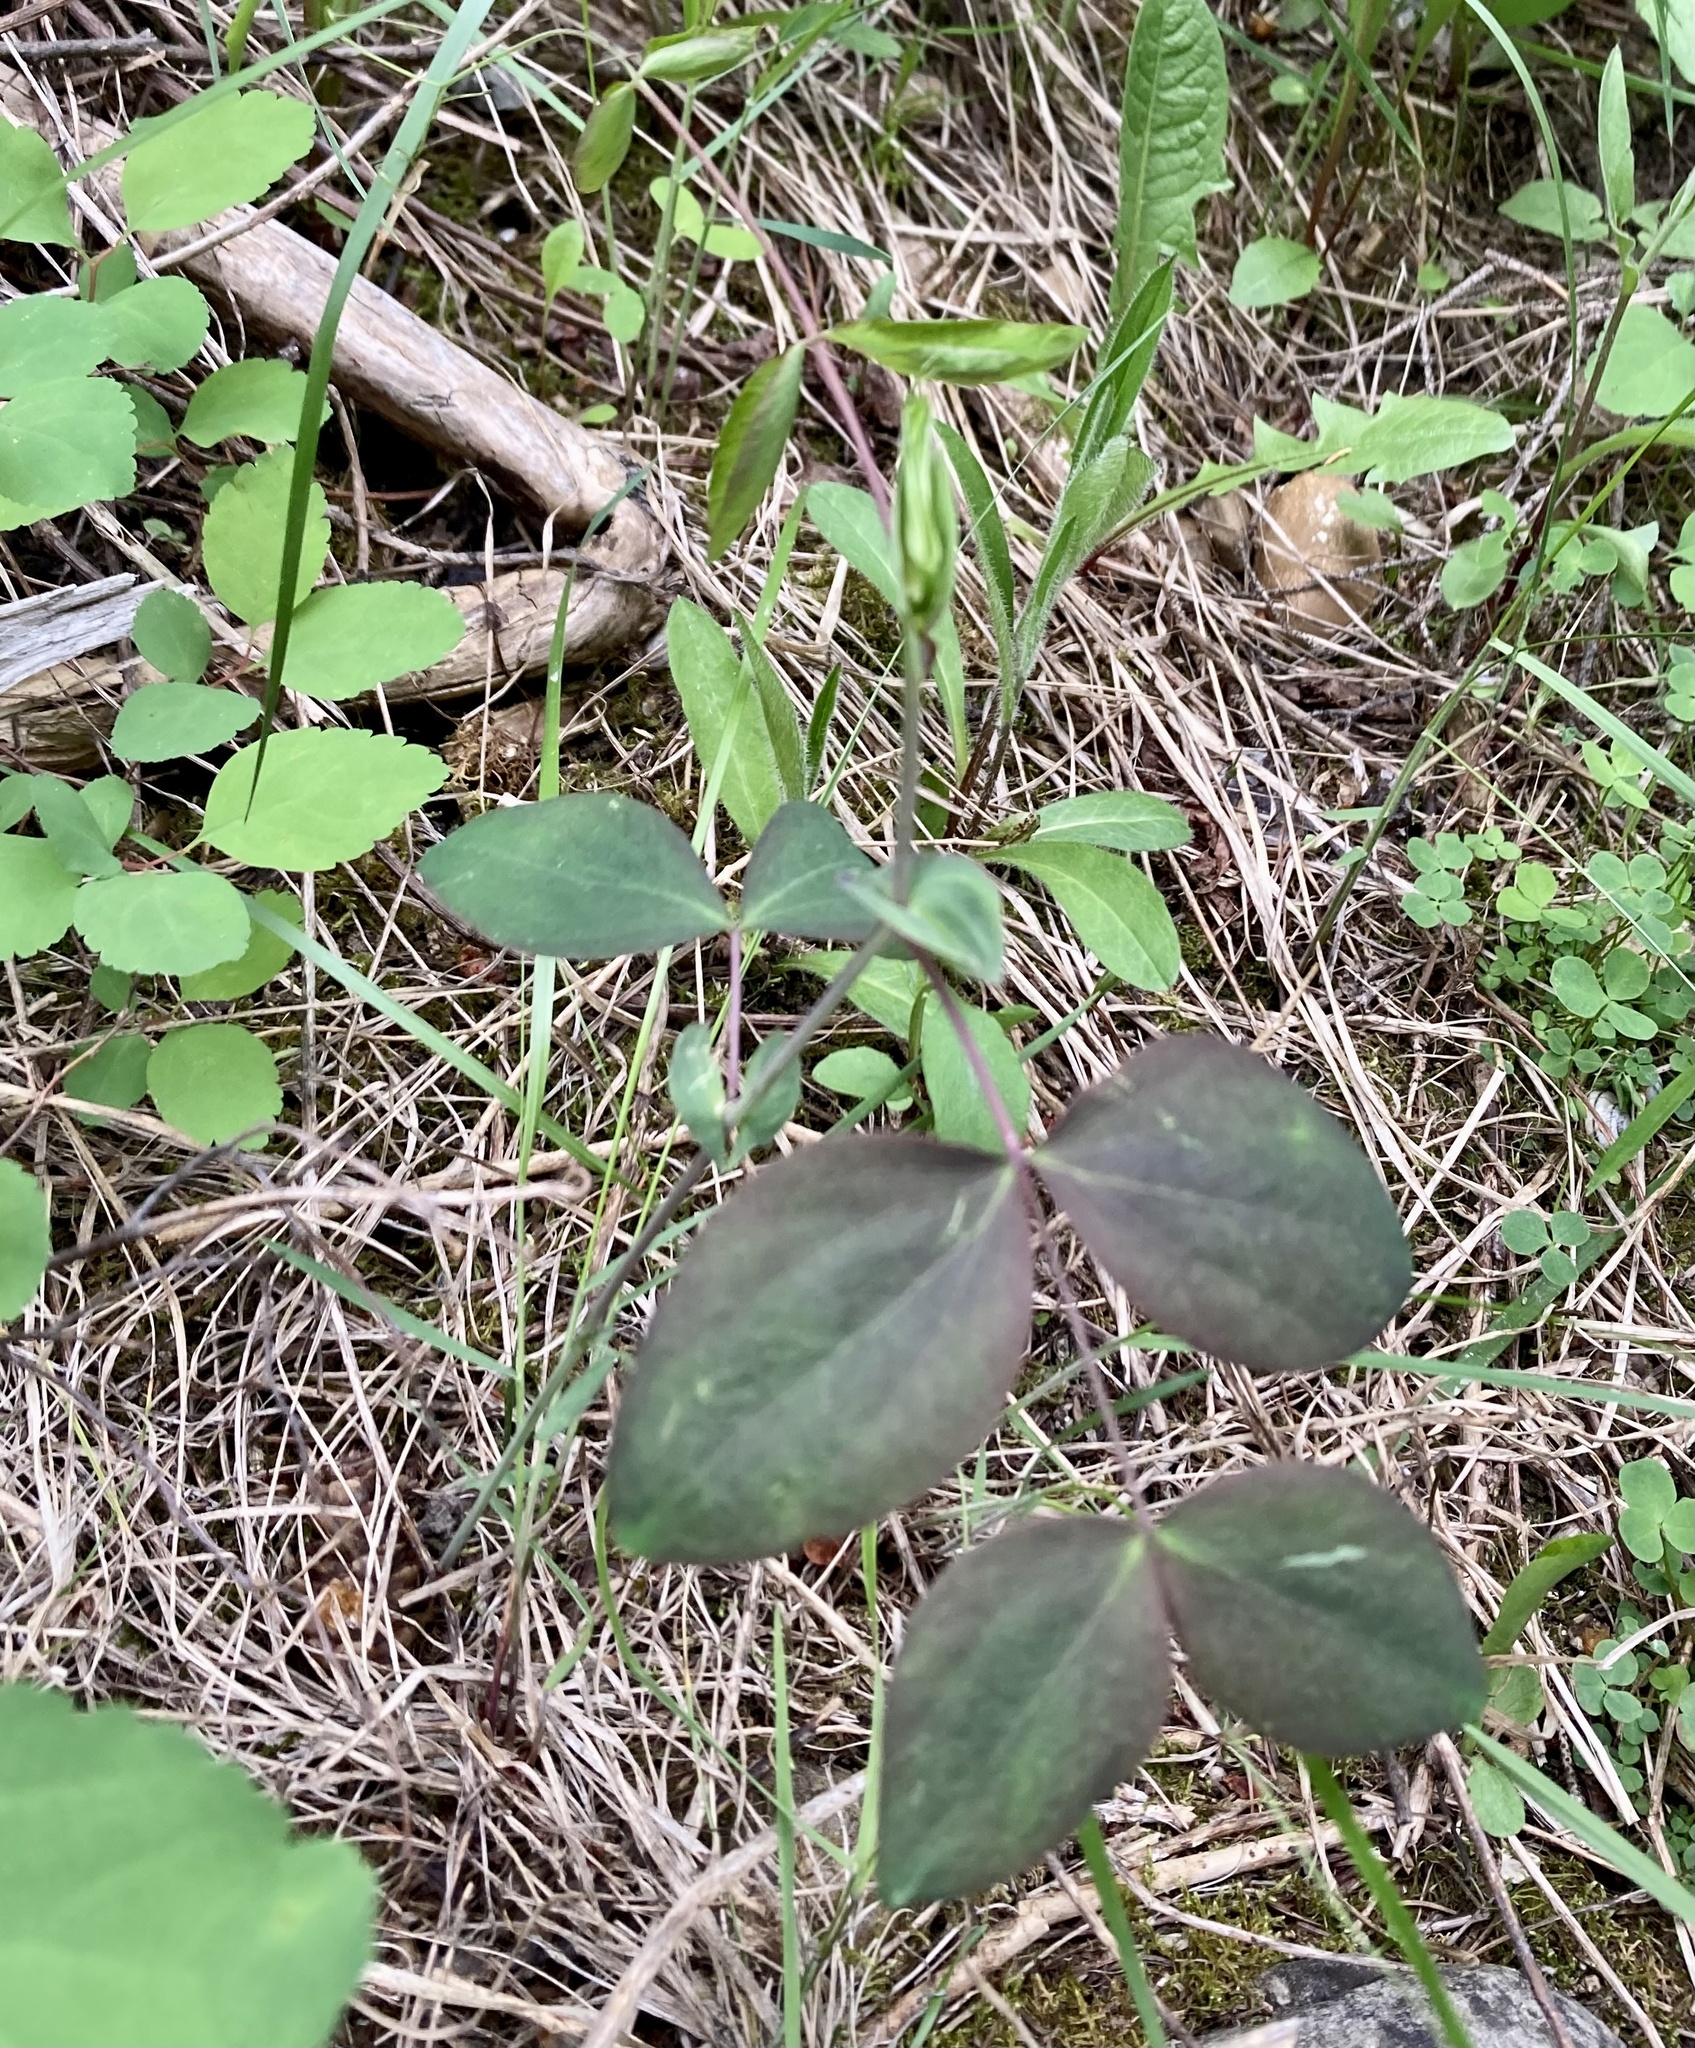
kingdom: Plantae
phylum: Tracheophyta
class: Magnoliopsida
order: Fabales
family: Fabaceae
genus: Lathyrus
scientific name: Lathyrus ochroleucus
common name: Pale vetchling
